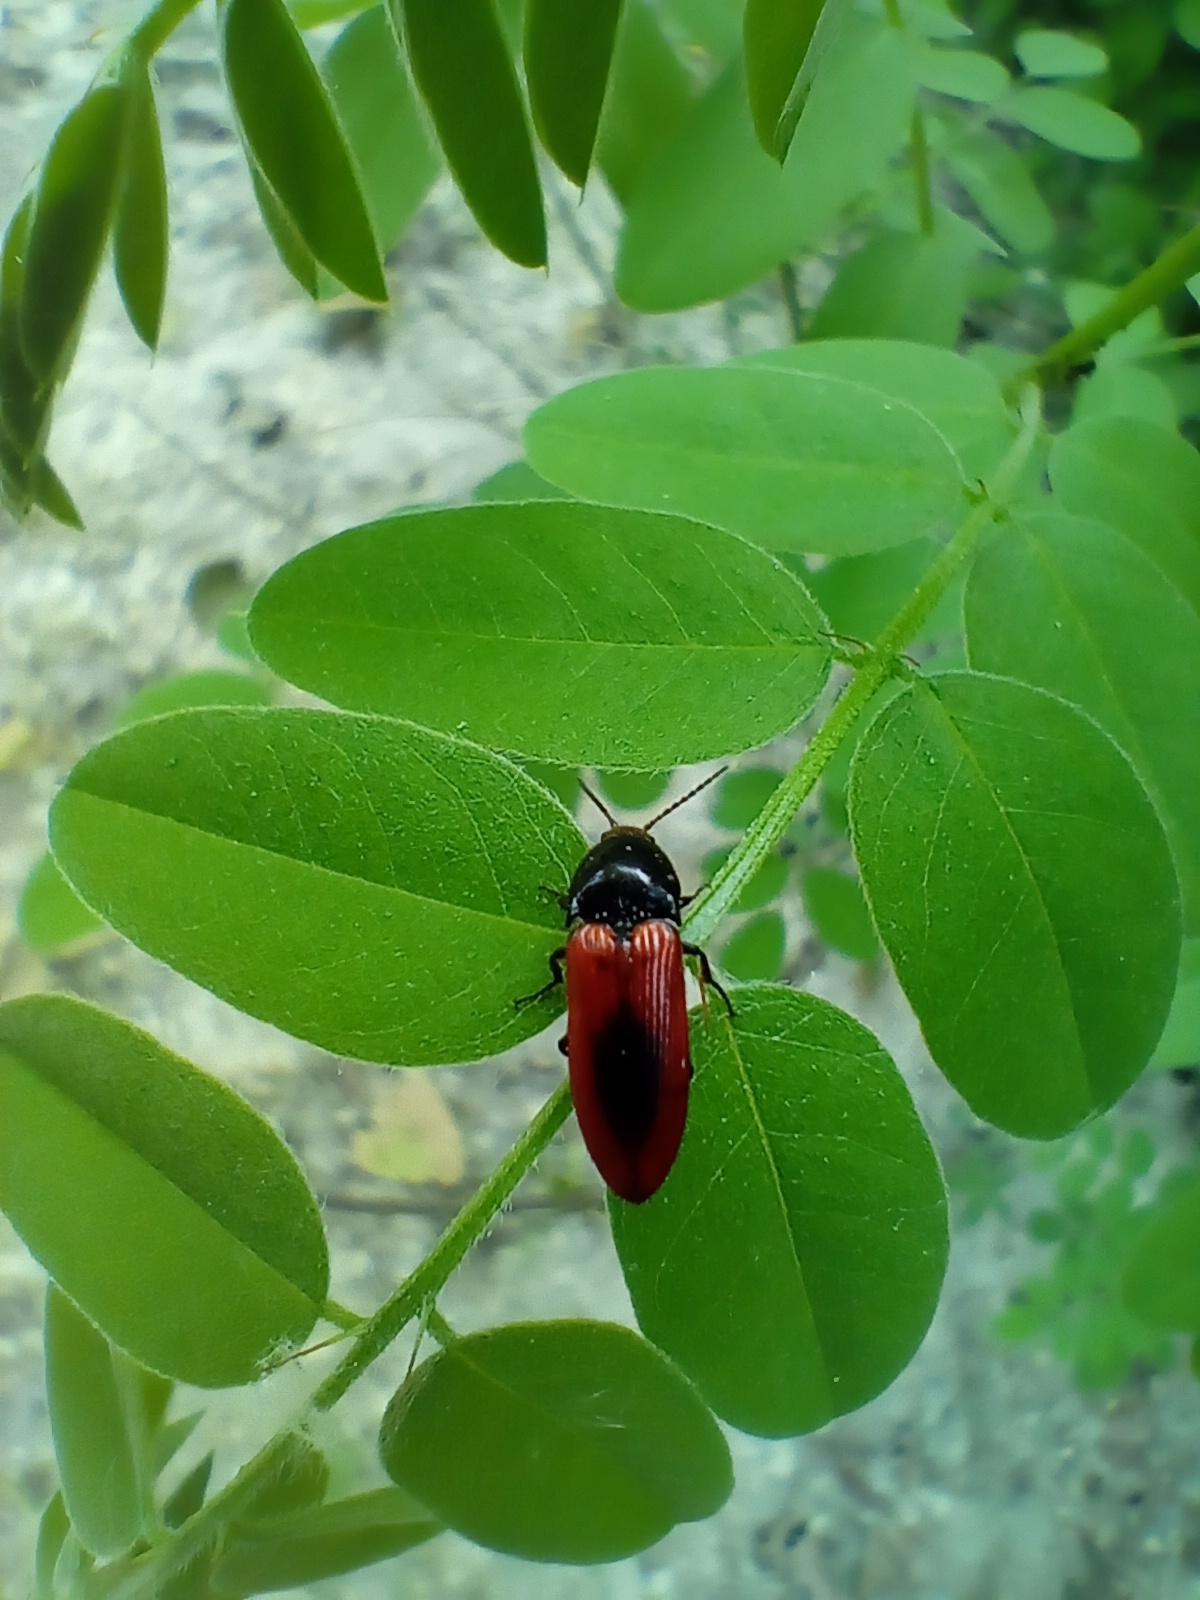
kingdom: Animalia
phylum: Arthropoda
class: Insecta
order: Coleoptera
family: Elateridae
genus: Ampedus
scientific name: Ampedus sanguinolentus
